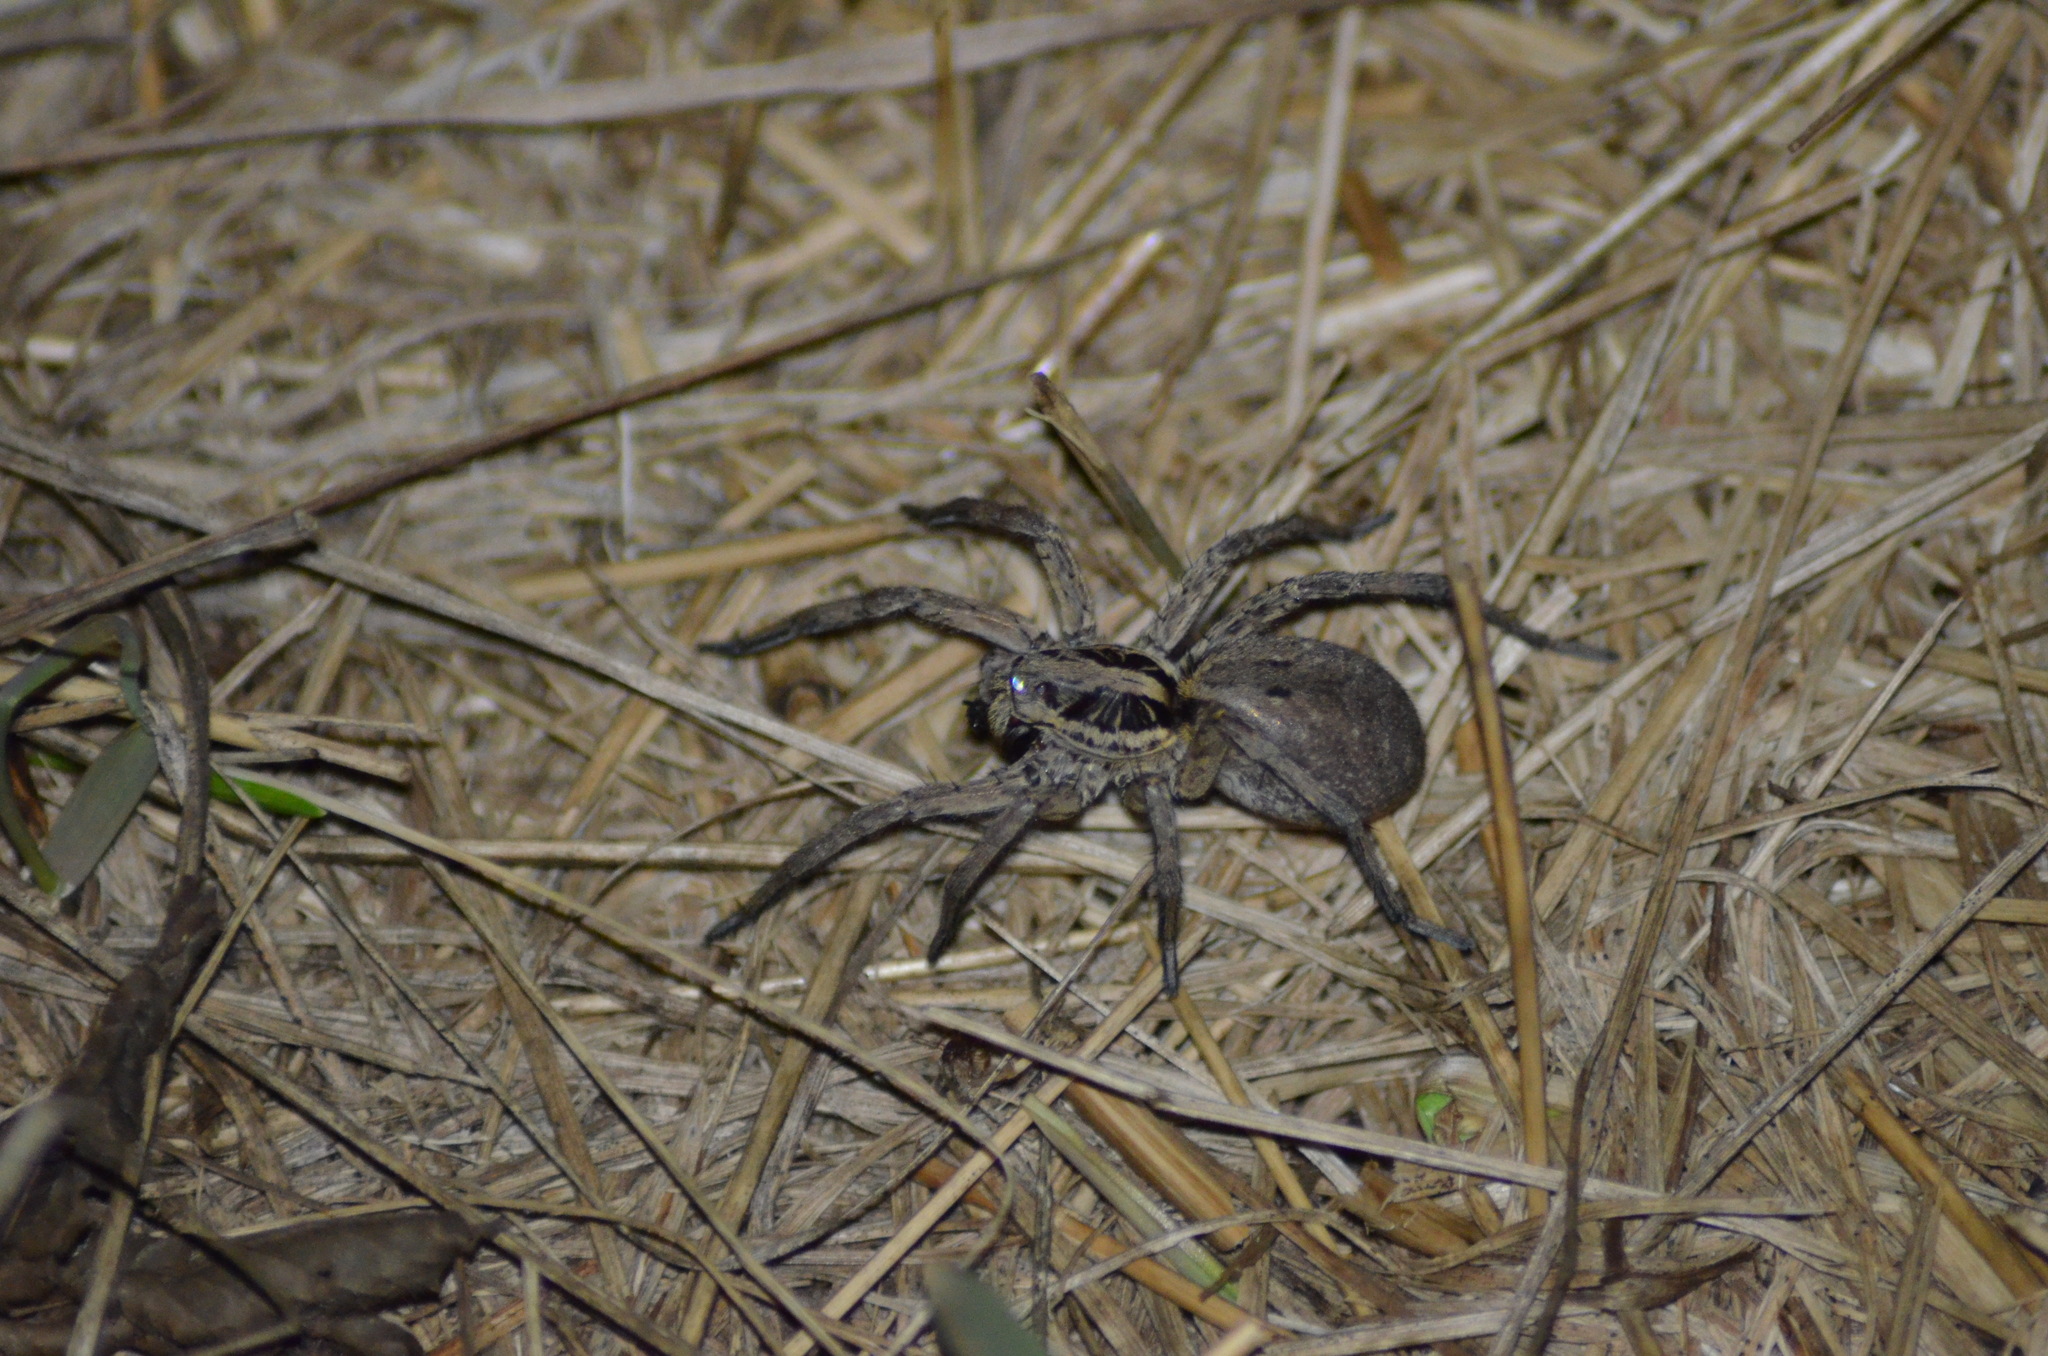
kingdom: Animalia
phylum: Arthropoda
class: Arachnida
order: Araneae
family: Lycosidae
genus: Hogna
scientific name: Hogna radiata
